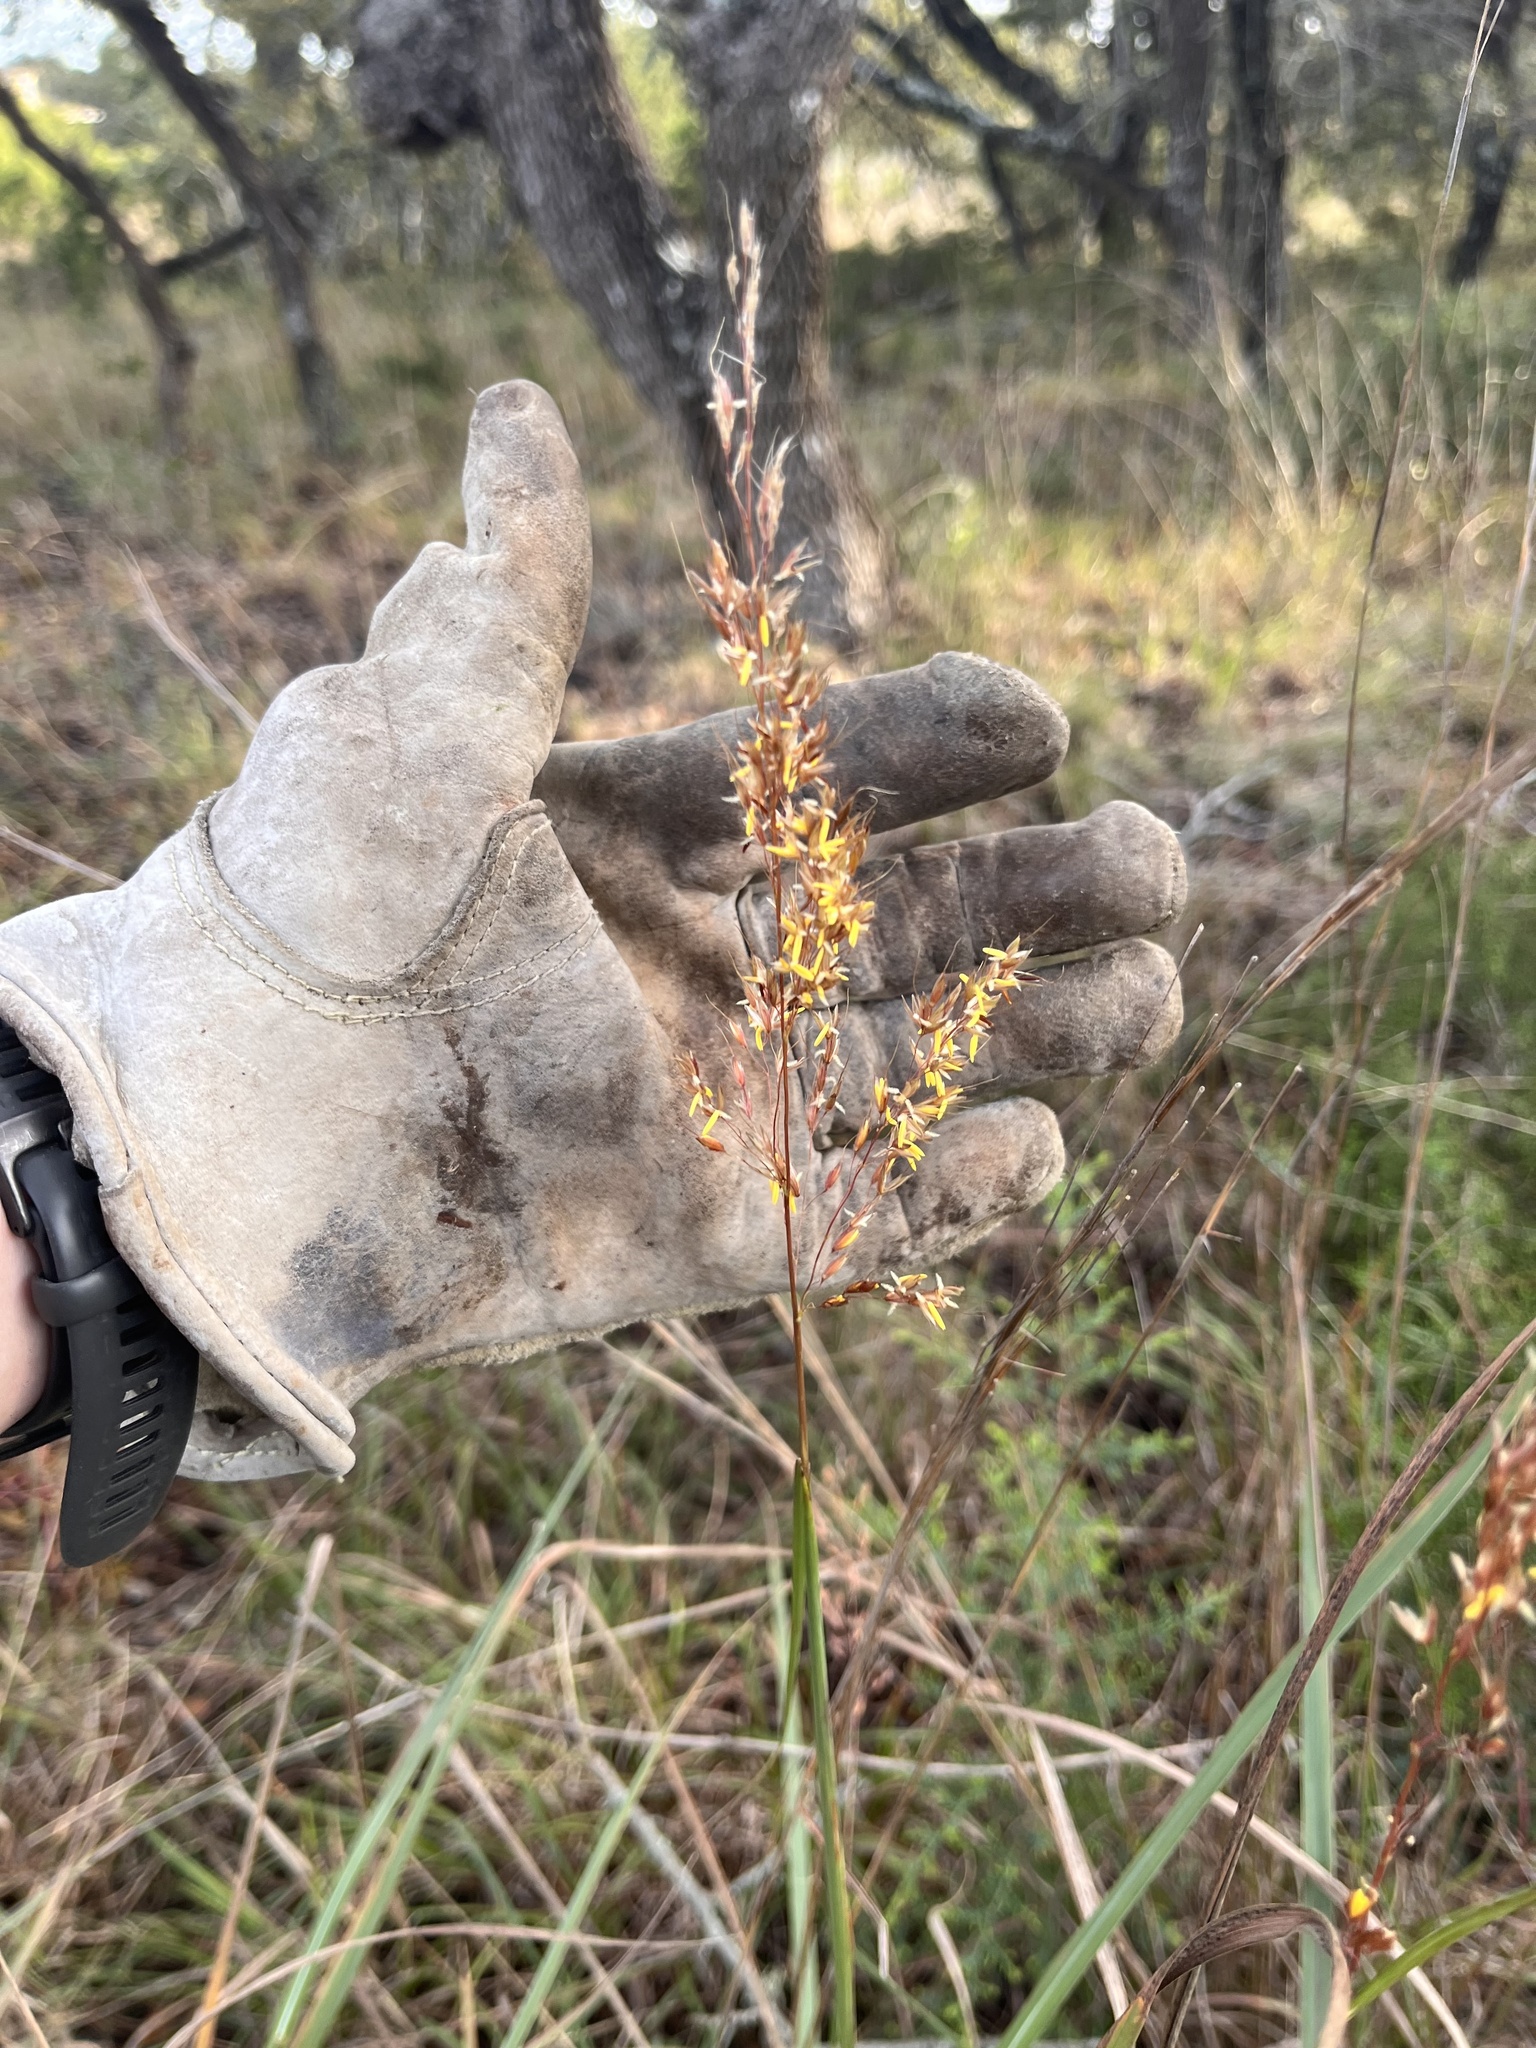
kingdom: Plantae
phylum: Tracheophyta
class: Liliopsida
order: Poales
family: Poaceae
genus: Sorghastrum
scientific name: Sorghastrum nutans
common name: Indian grass
